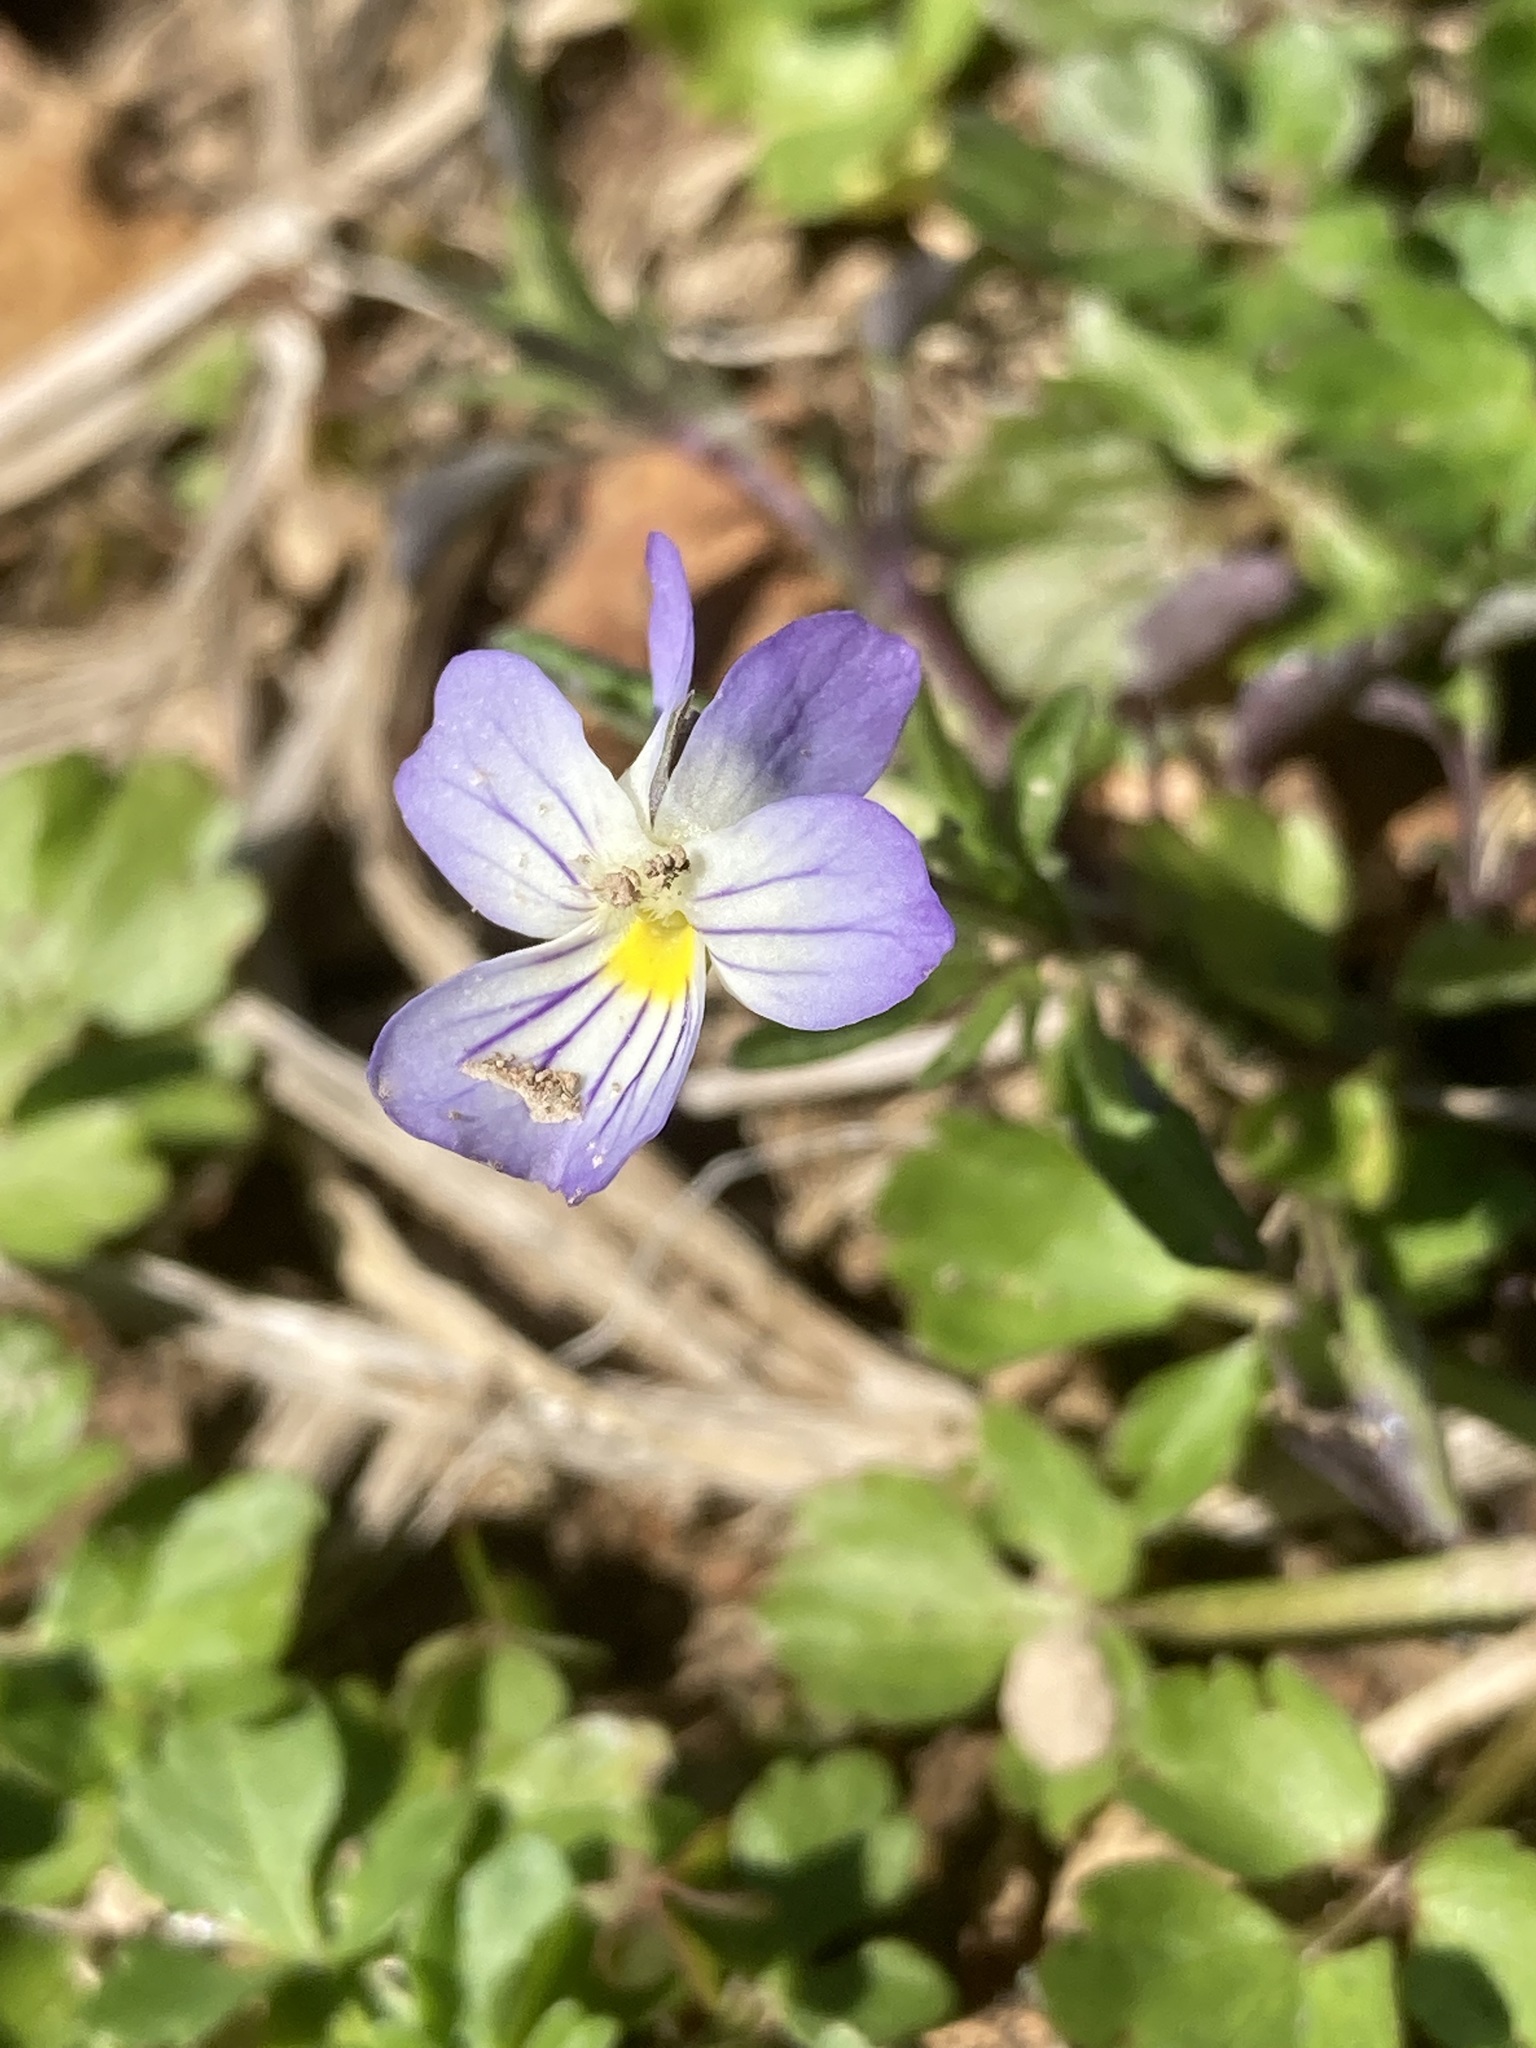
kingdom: Plantae
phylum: Tracheophyta
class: Magnoliopsida
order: Malpighiales
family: Violaceae
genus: Viola
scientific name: Viola rafinesquei
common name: American field pansy
